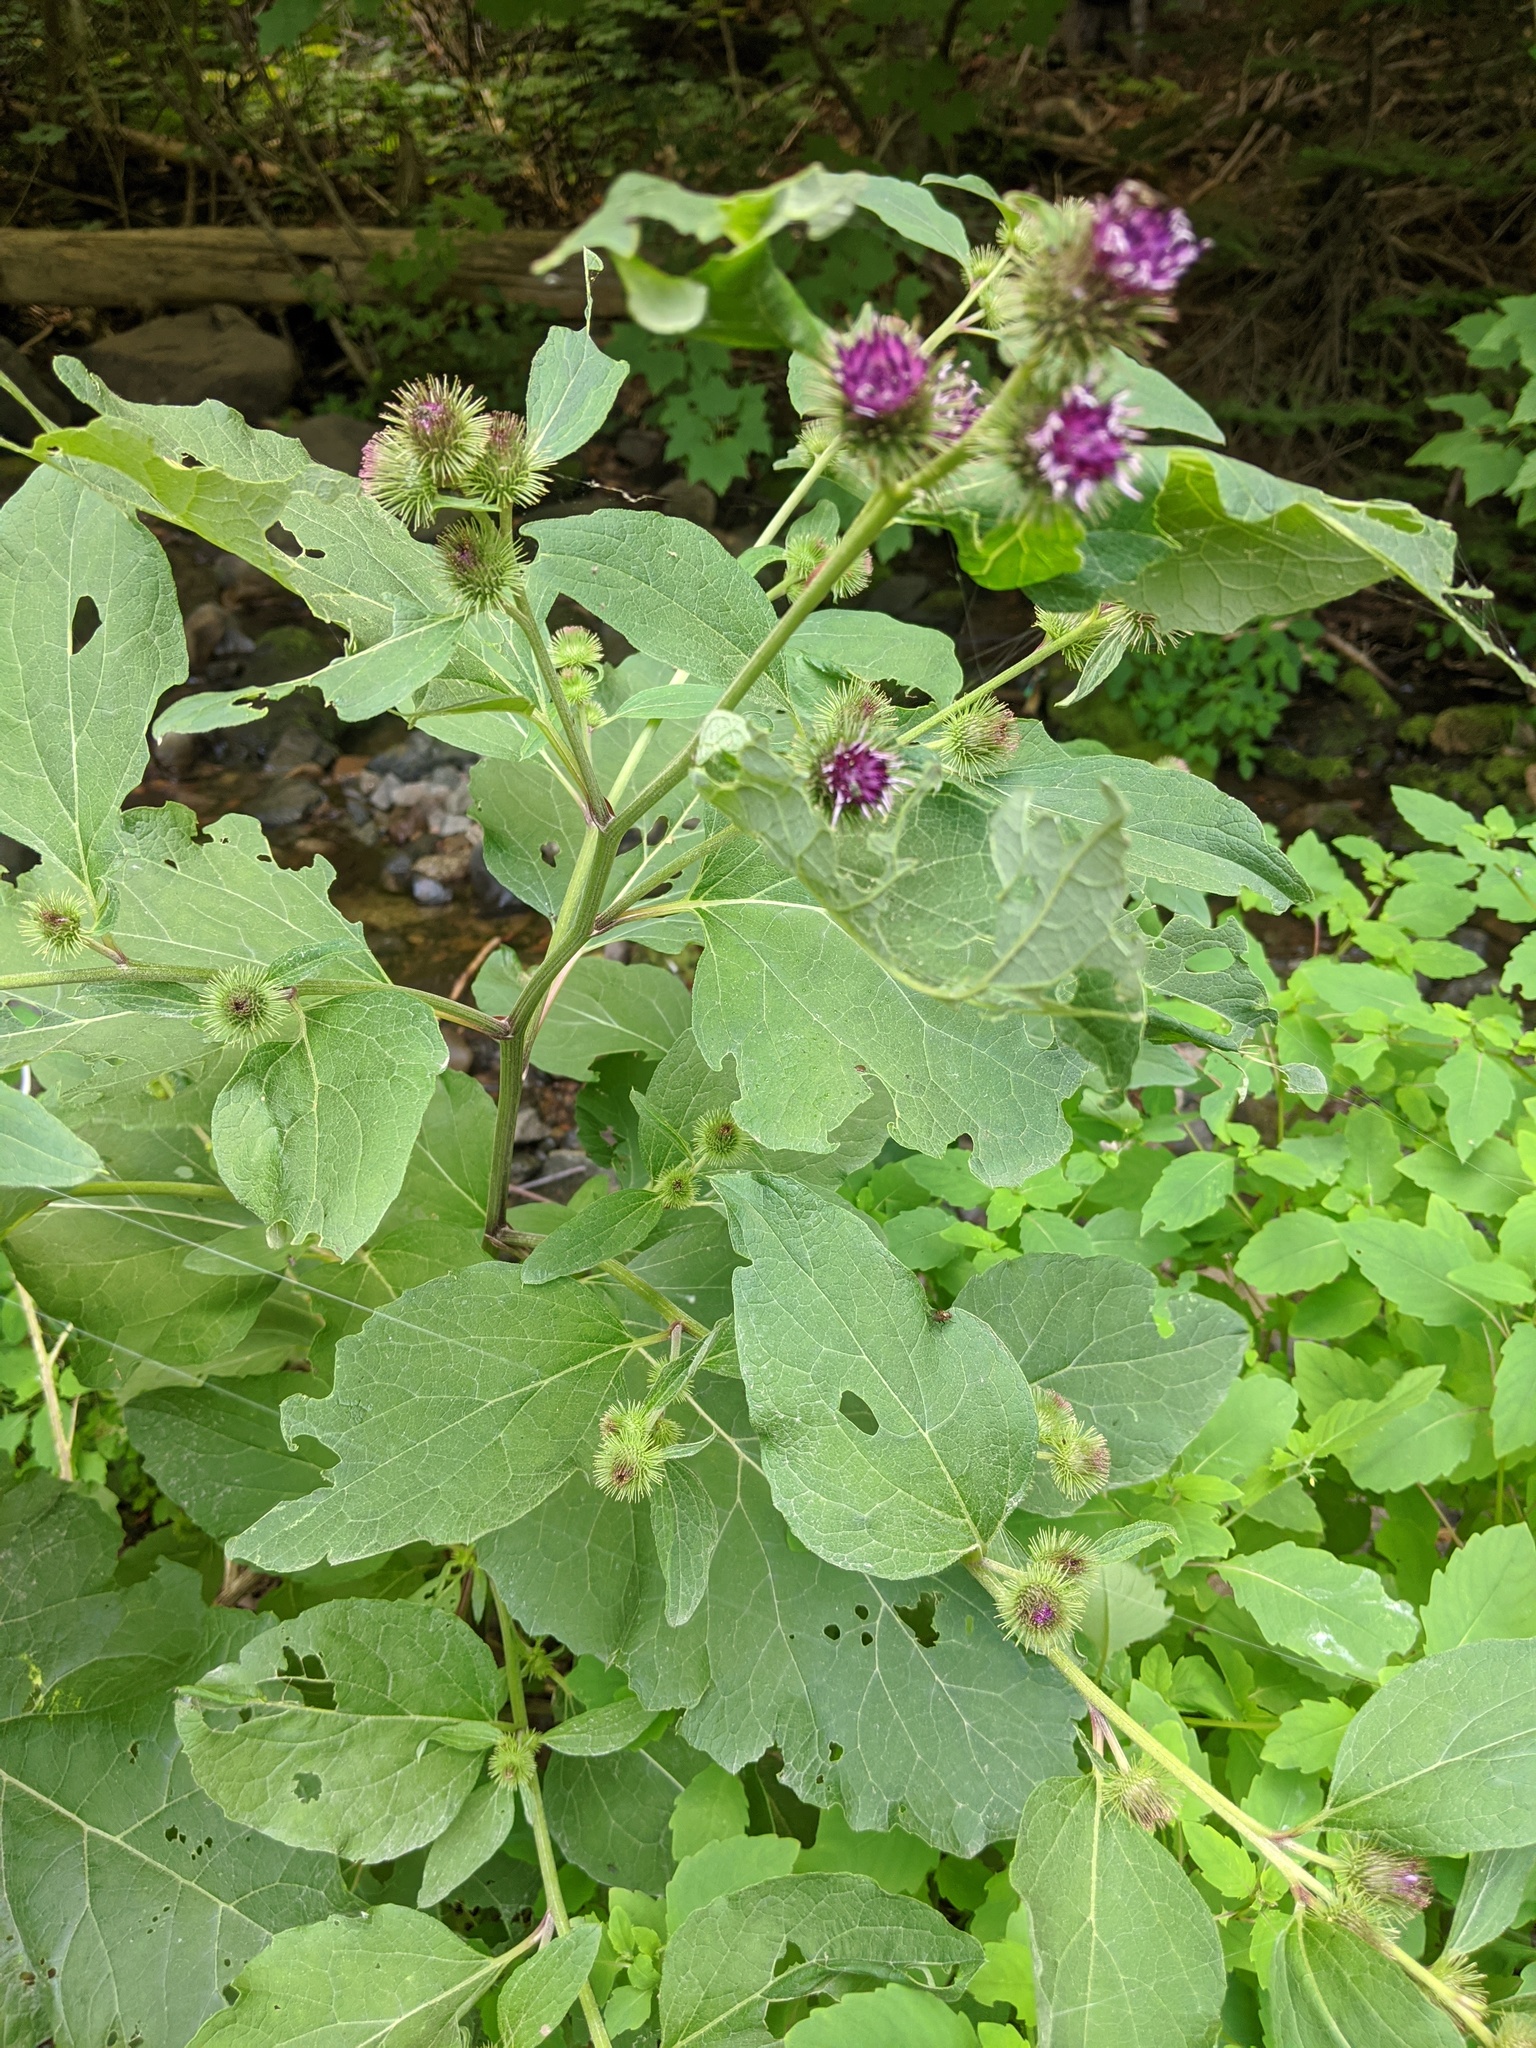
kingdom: Plantae
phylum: Tracheophyta
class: Magnoliopsida
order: Asterales
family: Asteraceae
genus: Arctium
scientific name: Arctium minus
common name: Lesser burdock
